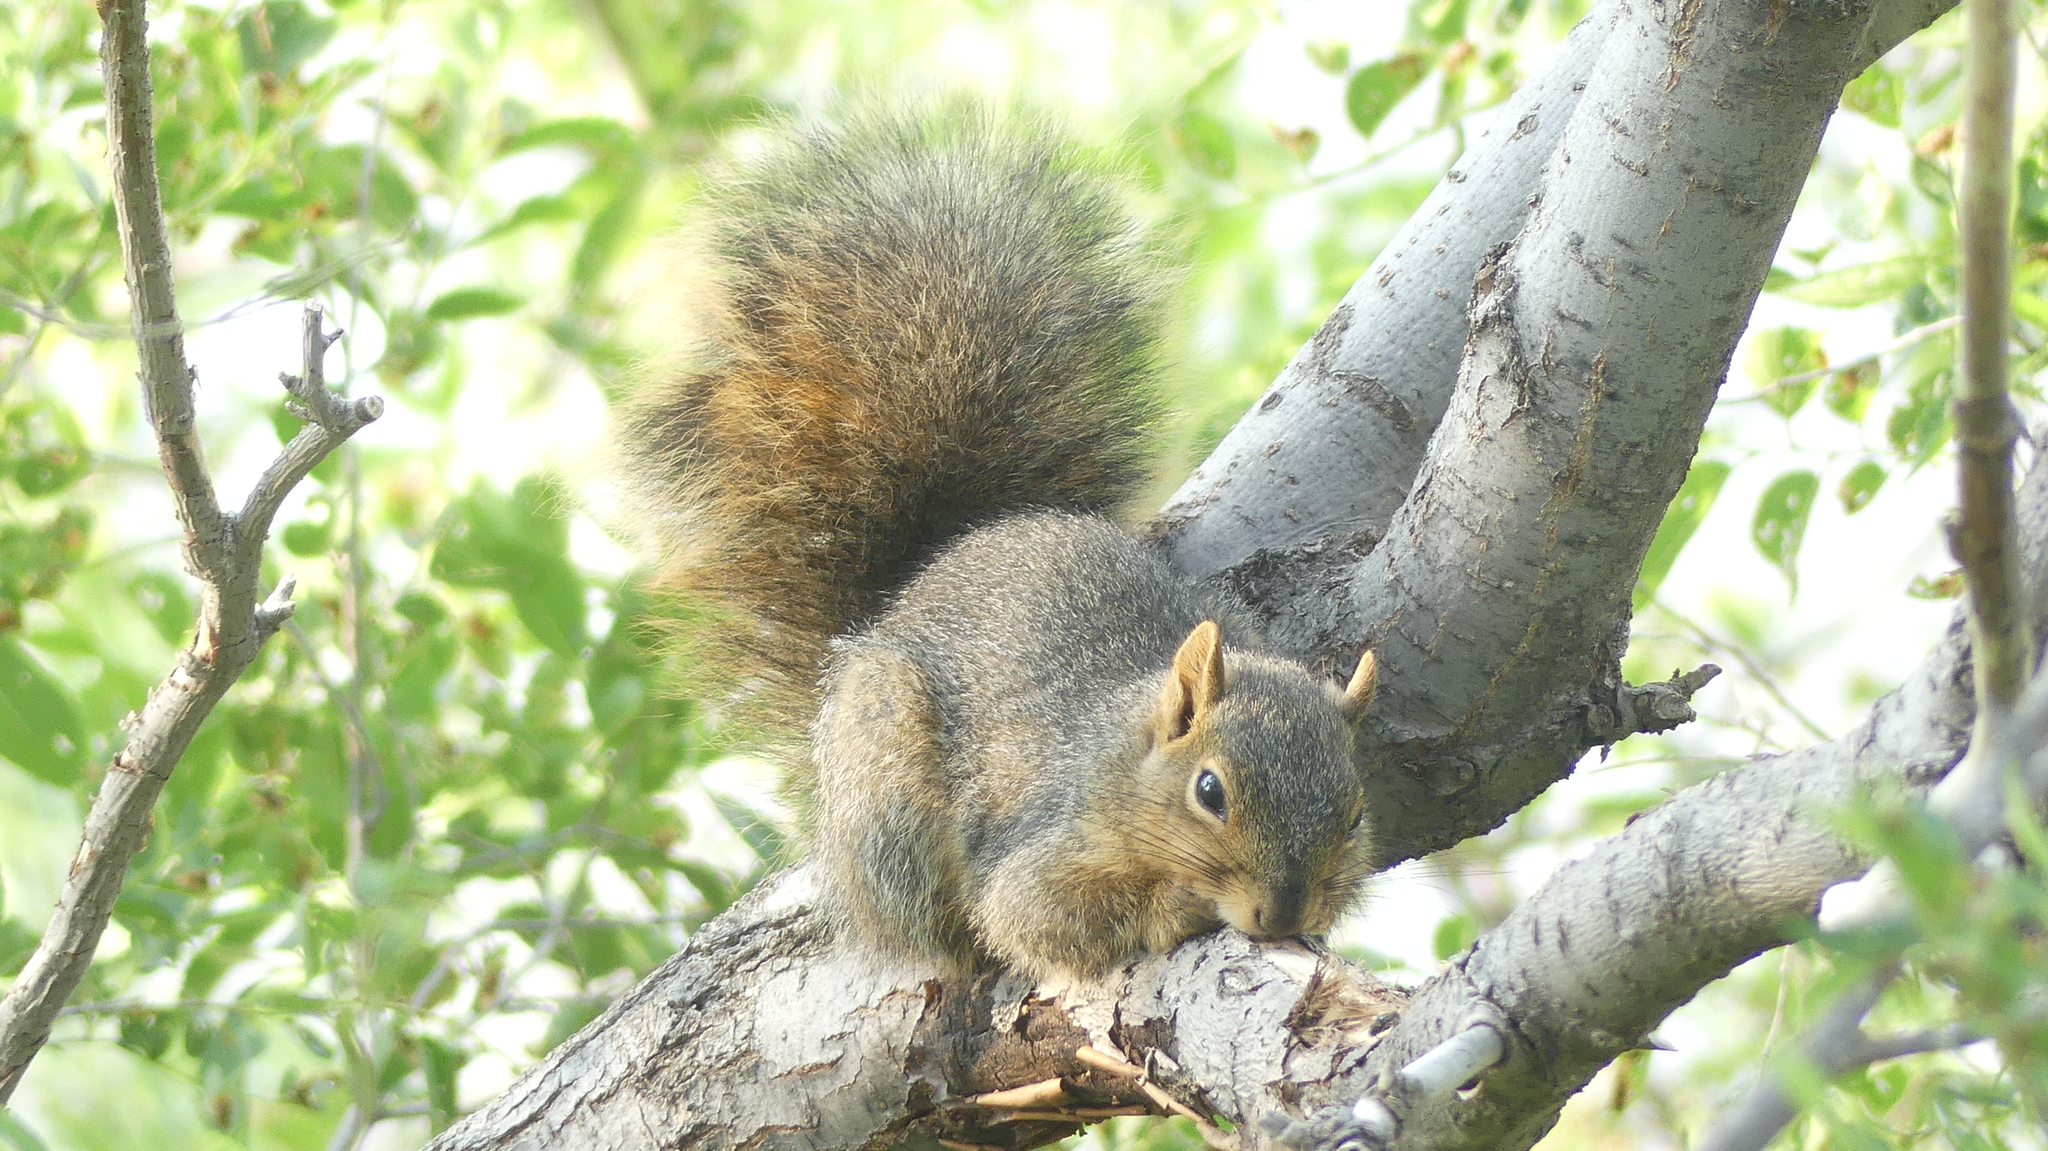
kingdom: Animalia
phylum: Chordata
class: Mammalia
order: Rodentia
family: Sciuridae
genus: Sciurus
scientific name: Sciurus niger
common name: Fox squirrel
